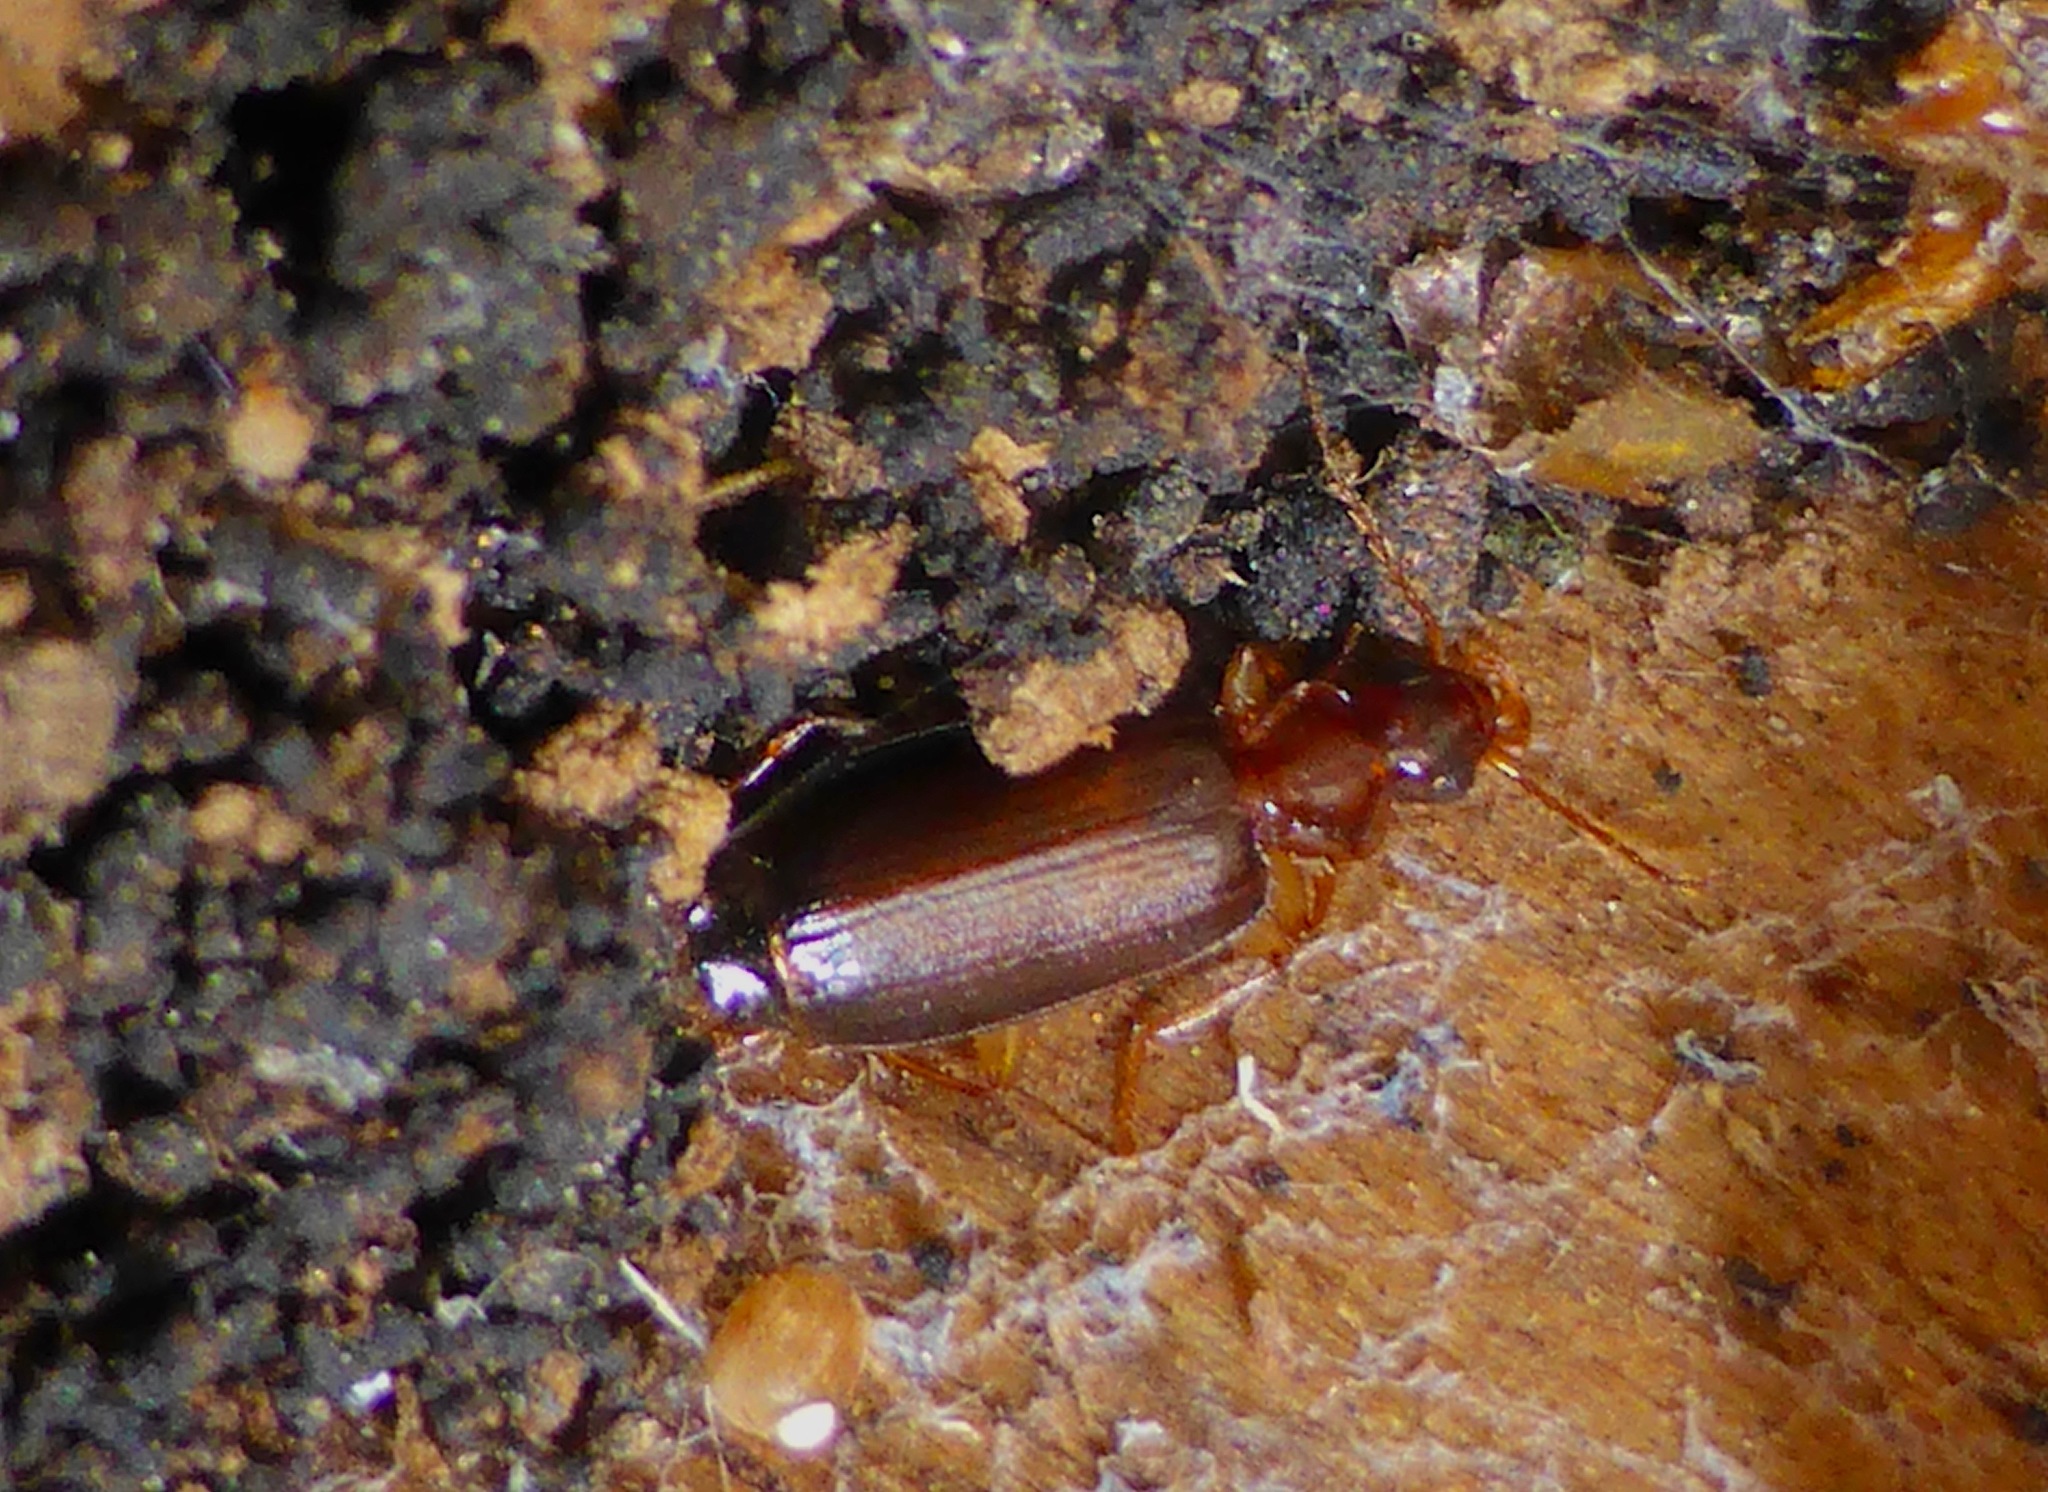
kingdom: Animalia
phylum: Arthropoda
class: Insecta
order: Coleoptera
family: Carabidae
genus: Dromius
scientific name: Dromius meridionalis
